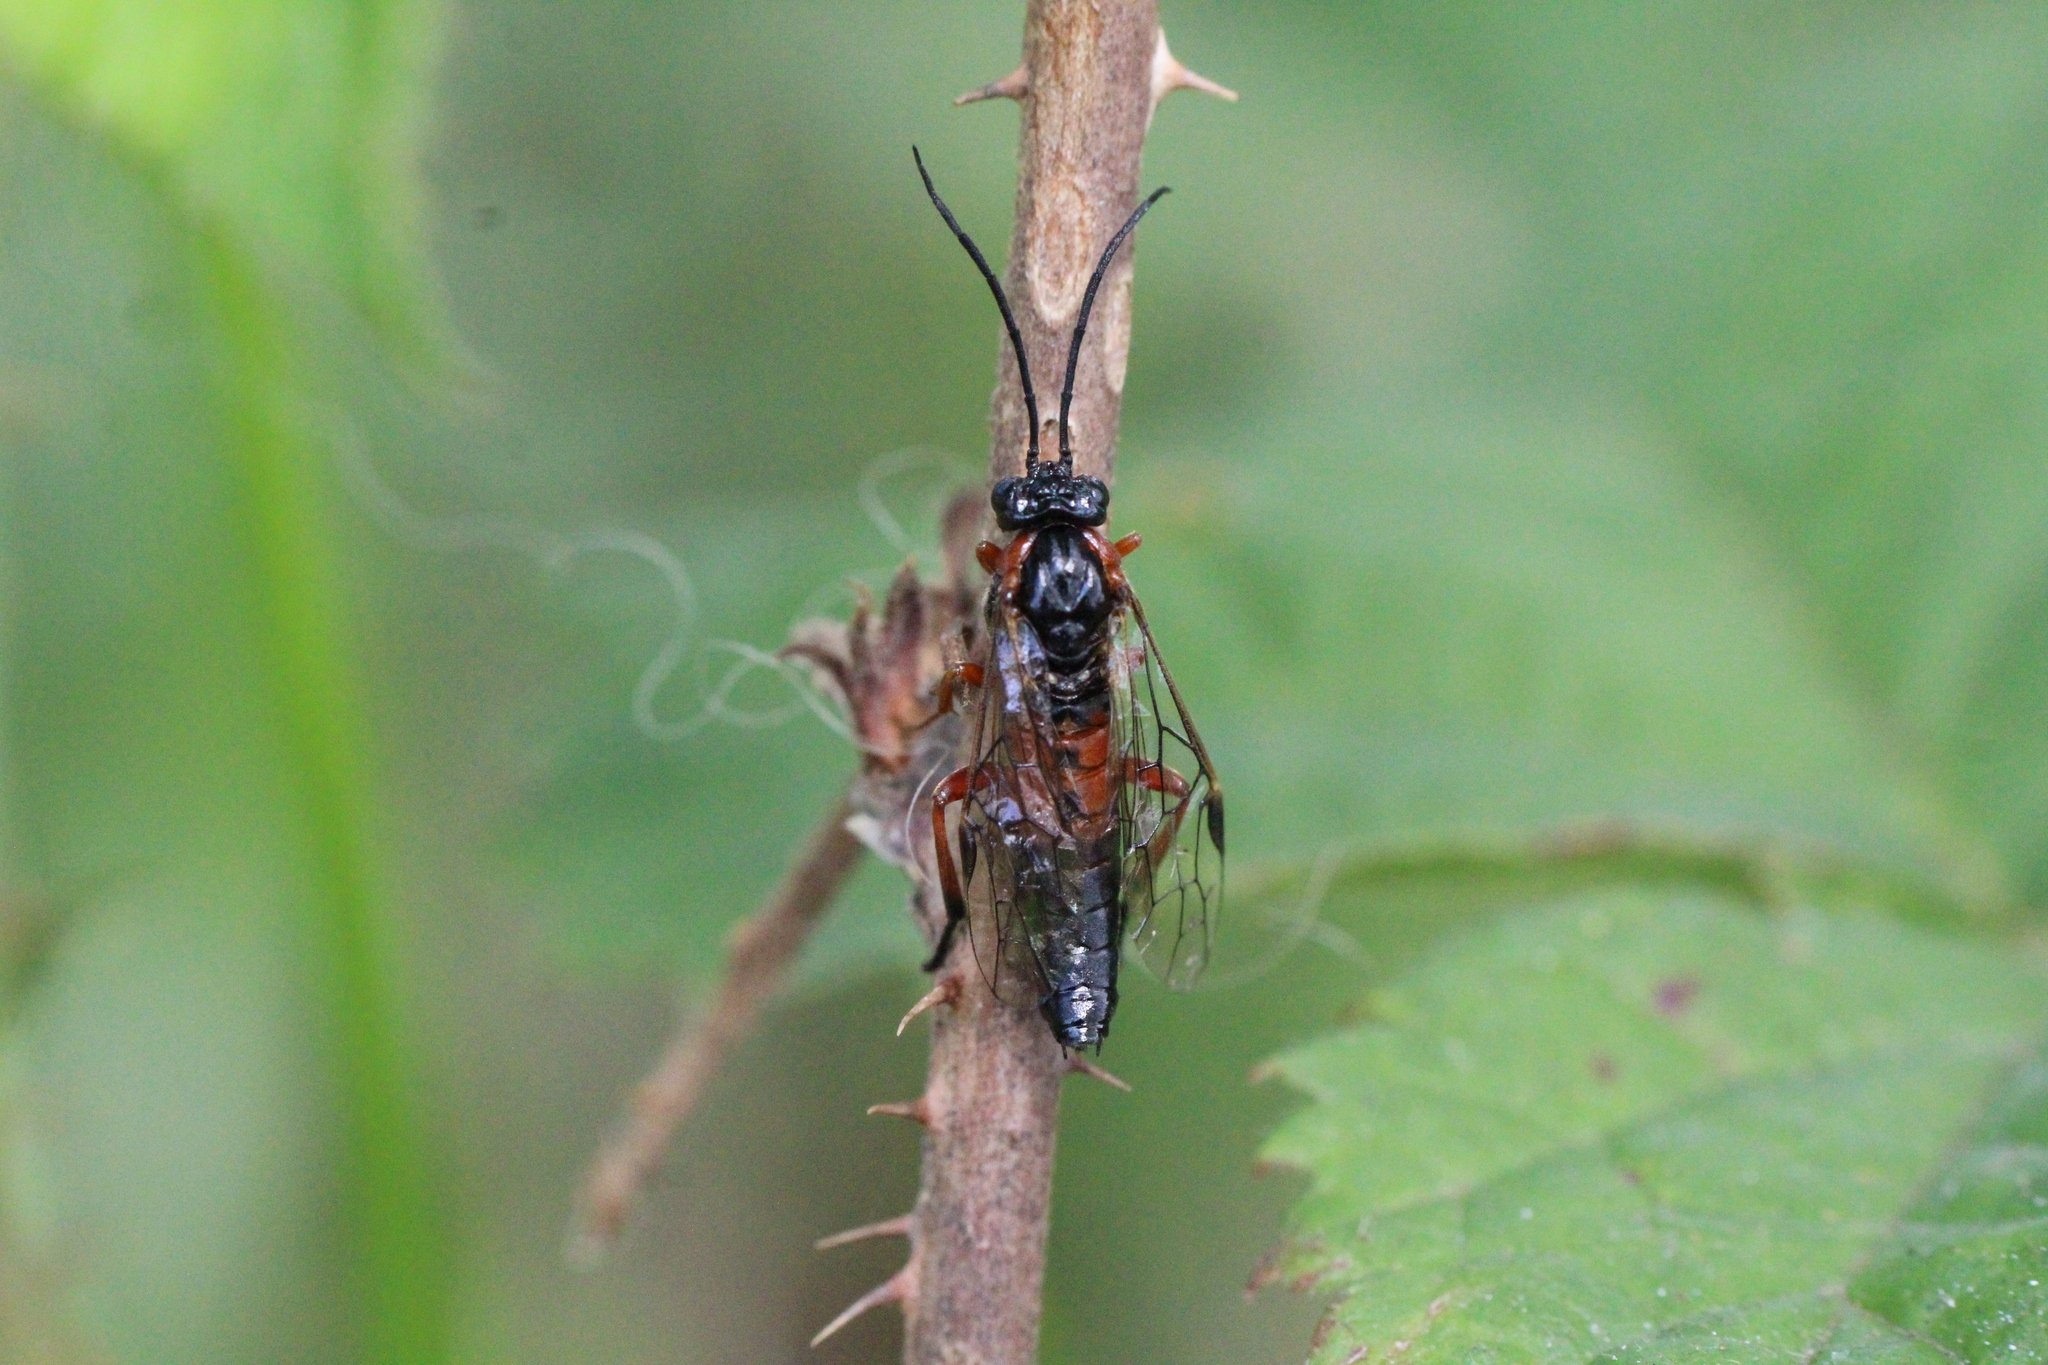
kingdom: Animalia
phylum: Arthropoda
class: Insecta
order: Hymenoptera
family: Tenthredinidae
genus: Nematus
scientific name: Nematus lucidus
